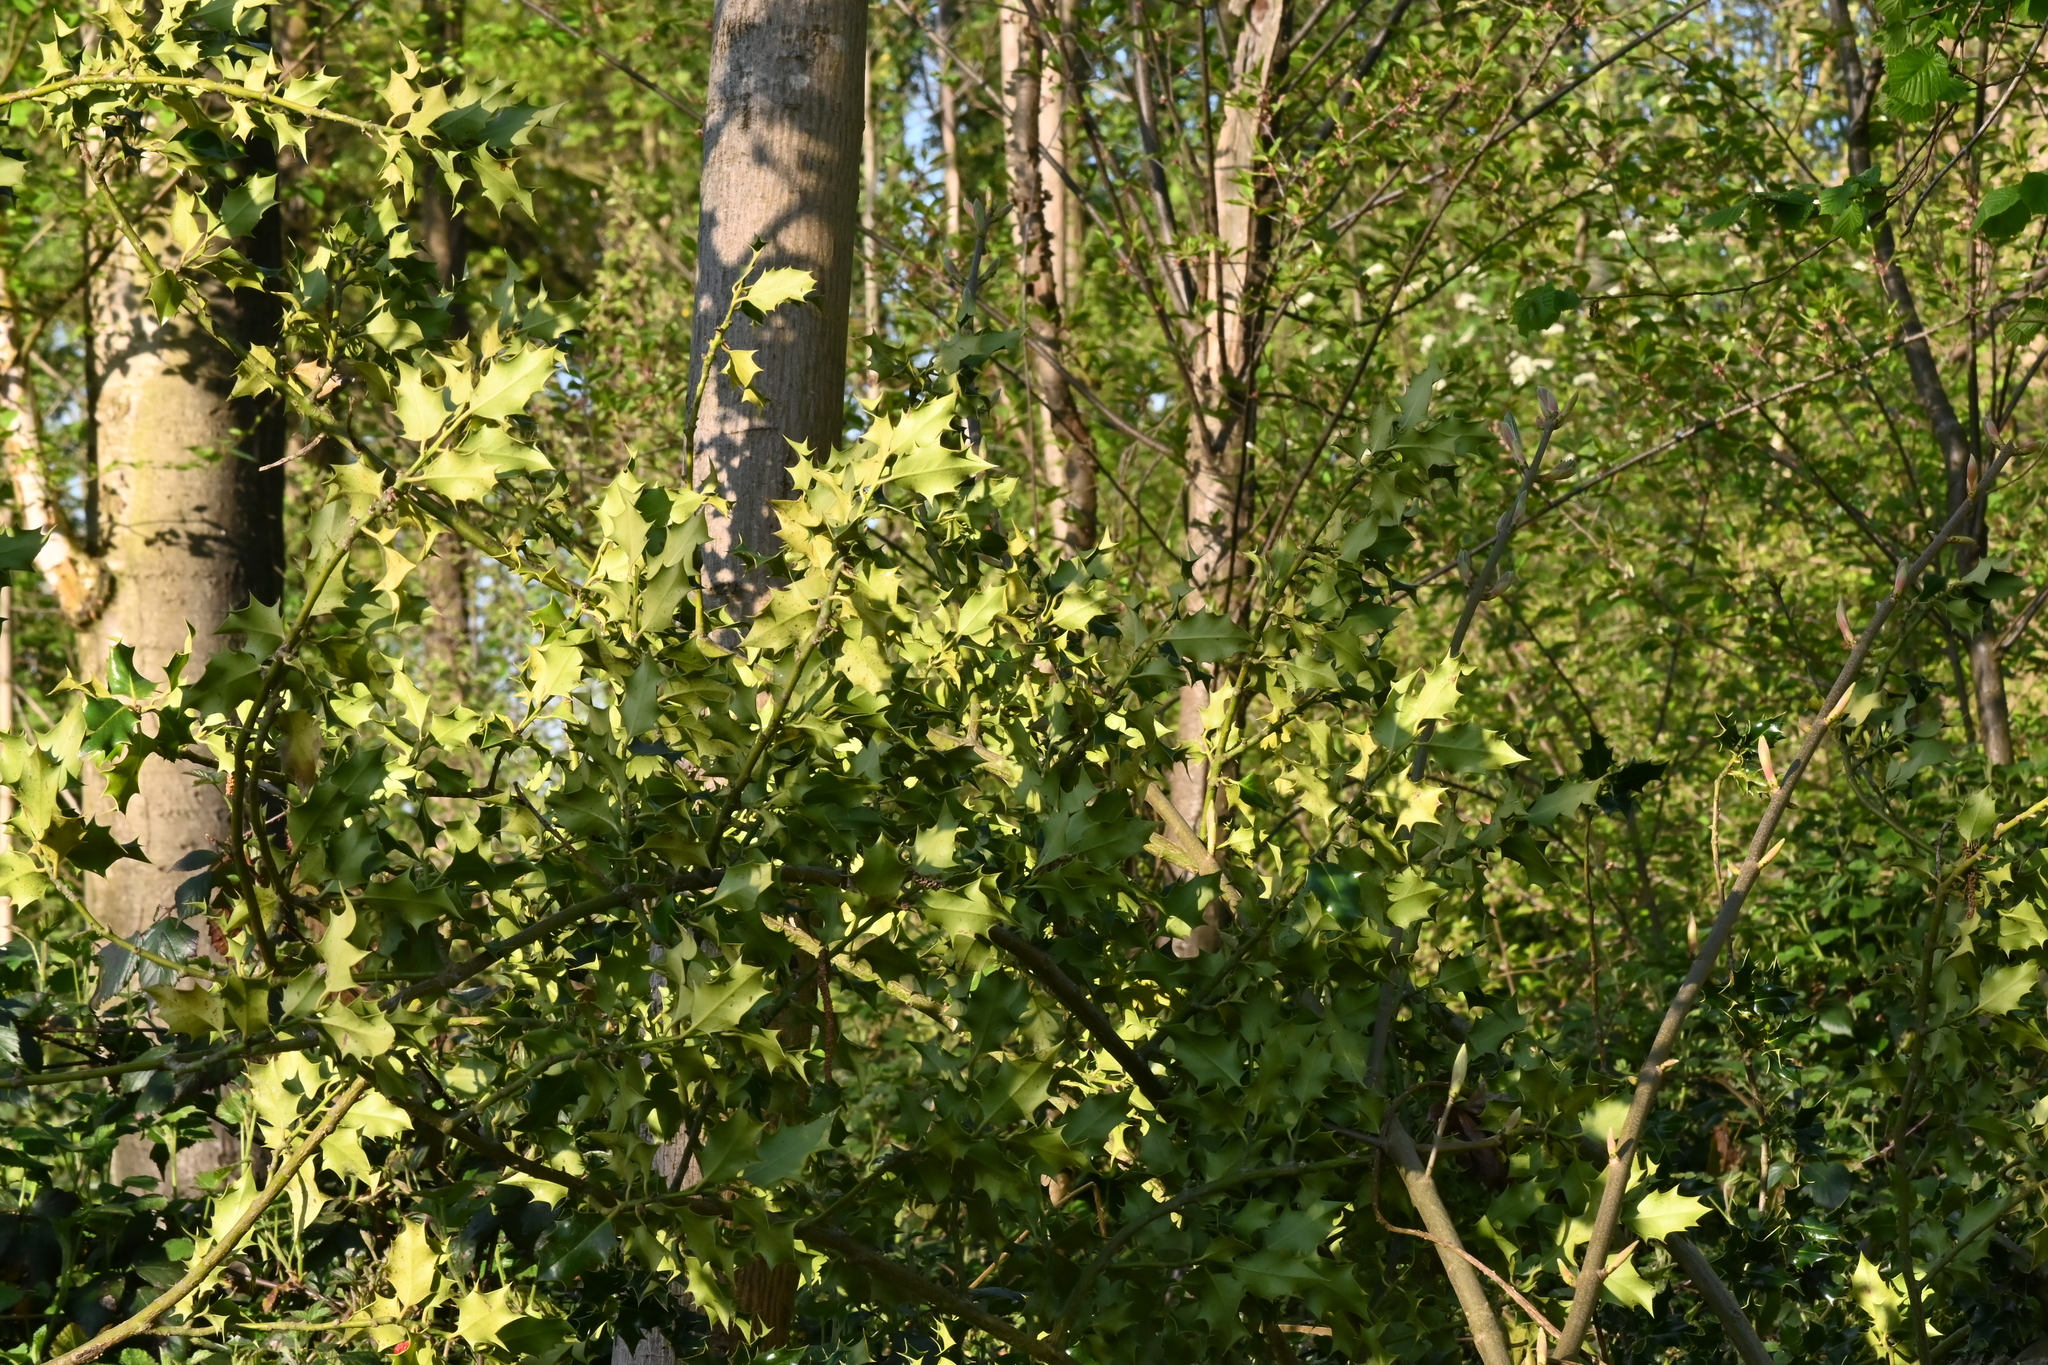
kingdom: Plantae
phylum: Tracheophyta
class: Magnoliopsida
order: Aquifoliales
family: Aquifoliaceae
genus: Ilex
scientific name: Ilex aquifolium
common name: English holly
